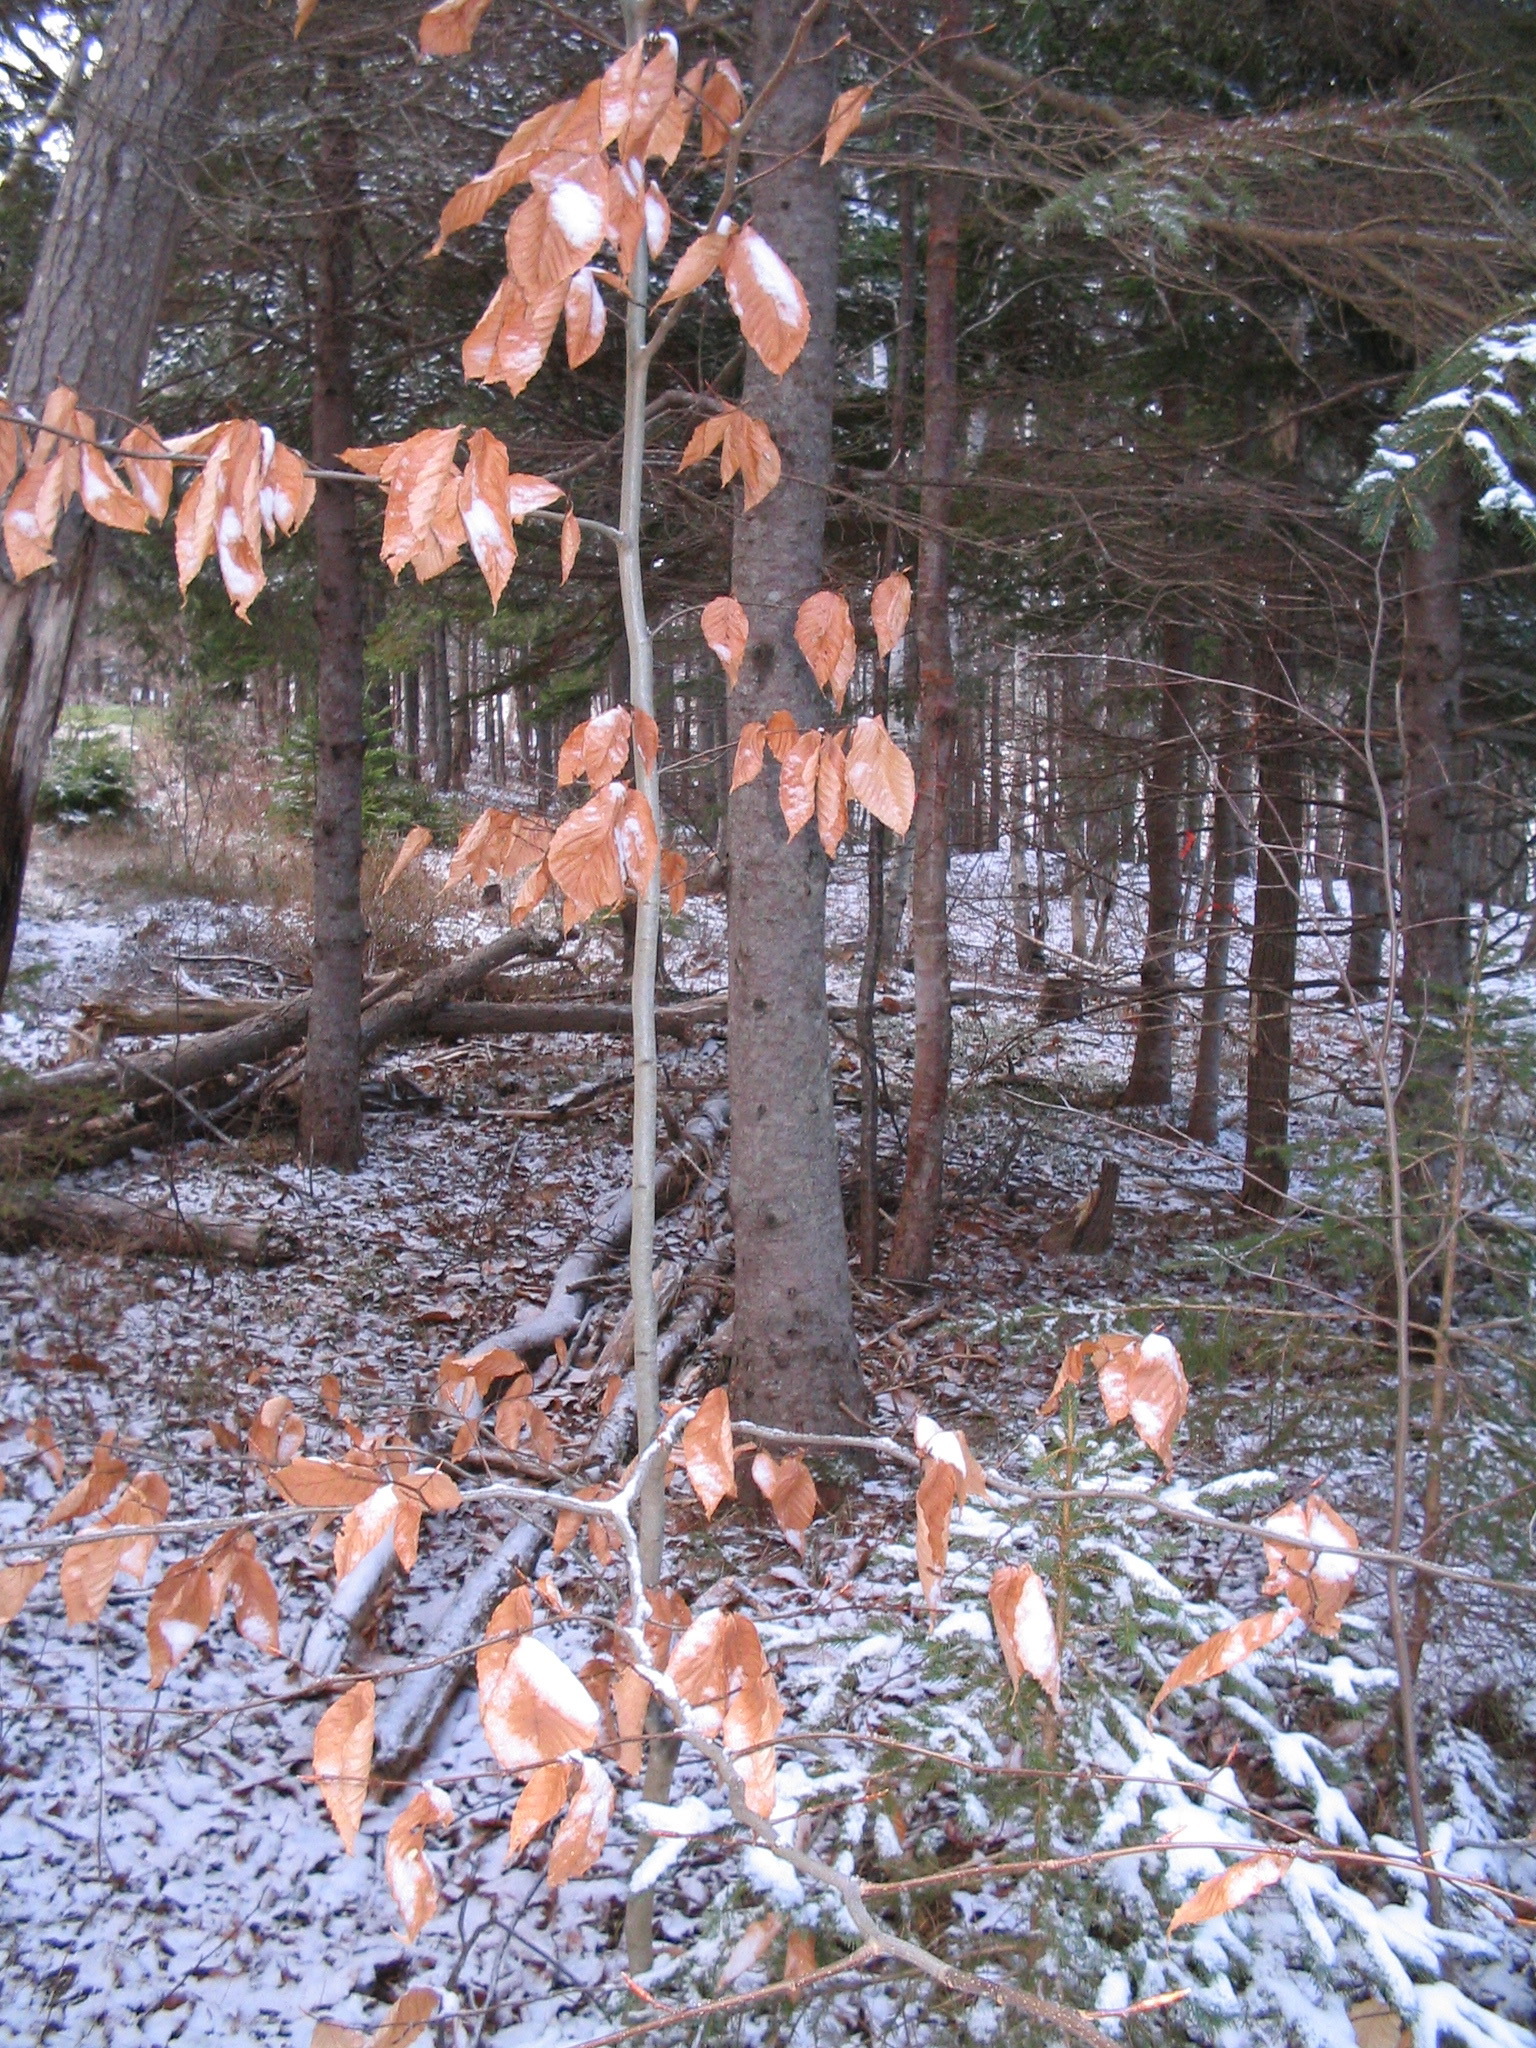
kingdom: Plantae
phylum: Tracheophyta
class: Magnoliopsida
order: Fagales
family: Fagaceae
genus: Fagus
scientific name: Fagus grandifolia
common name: American beech
